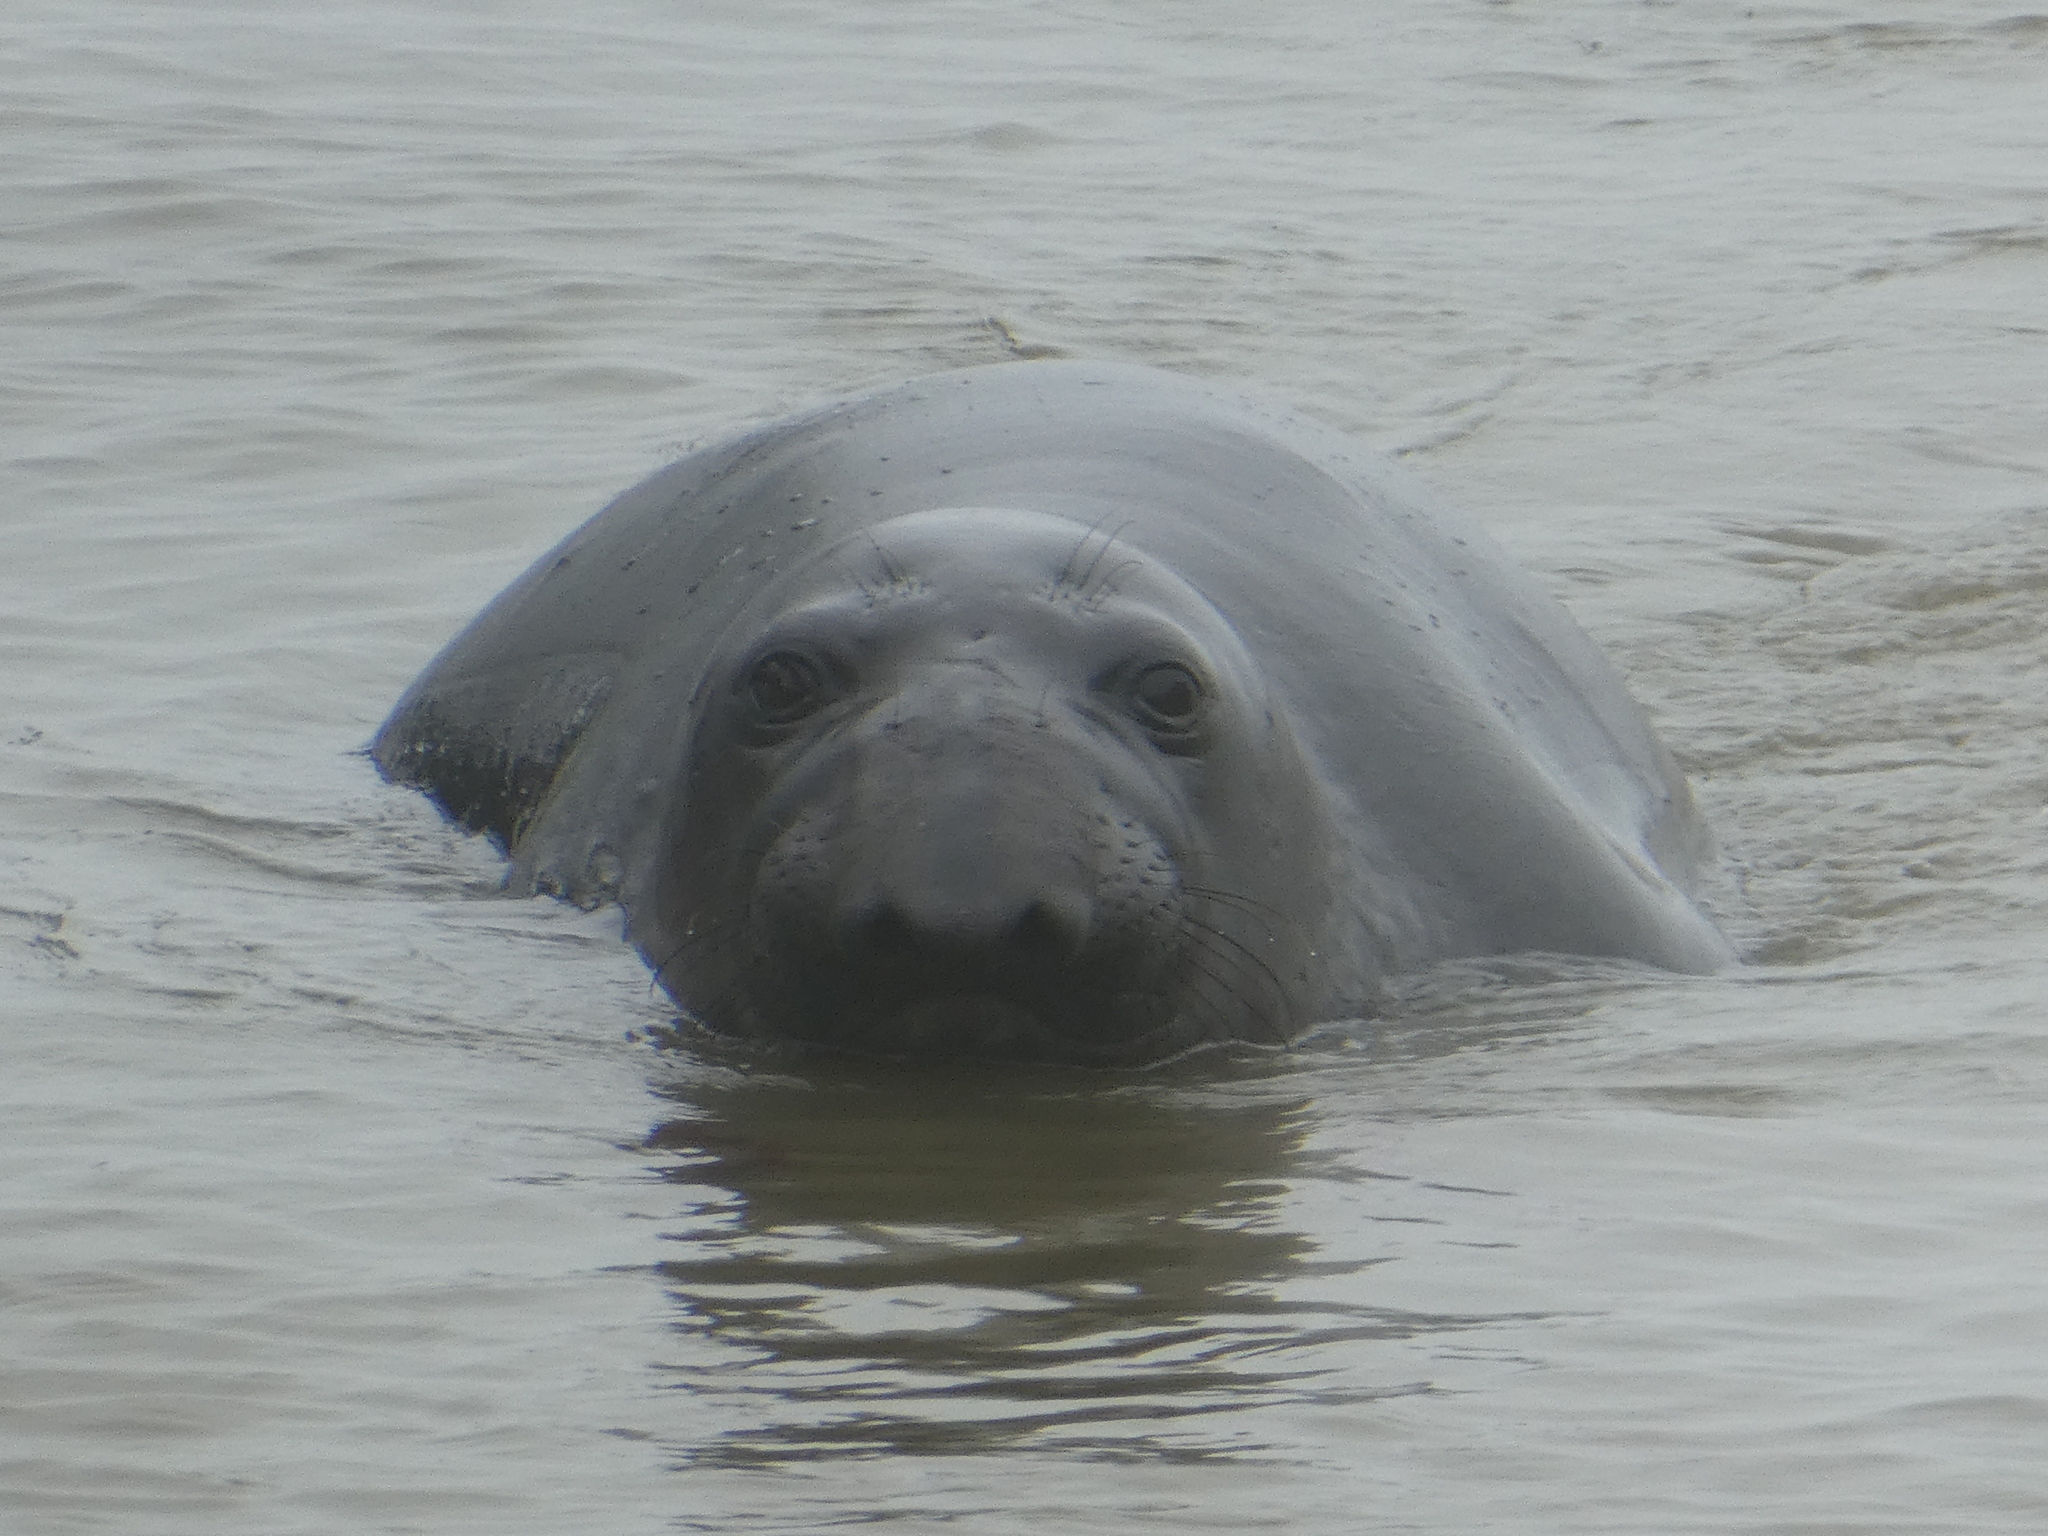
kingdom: Animalia
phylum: Chordata
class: Mammalia
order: Carnivora
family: Phocidae
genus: Mirounga
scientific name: Mirounga angustirostris
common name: Northern elephant seal
